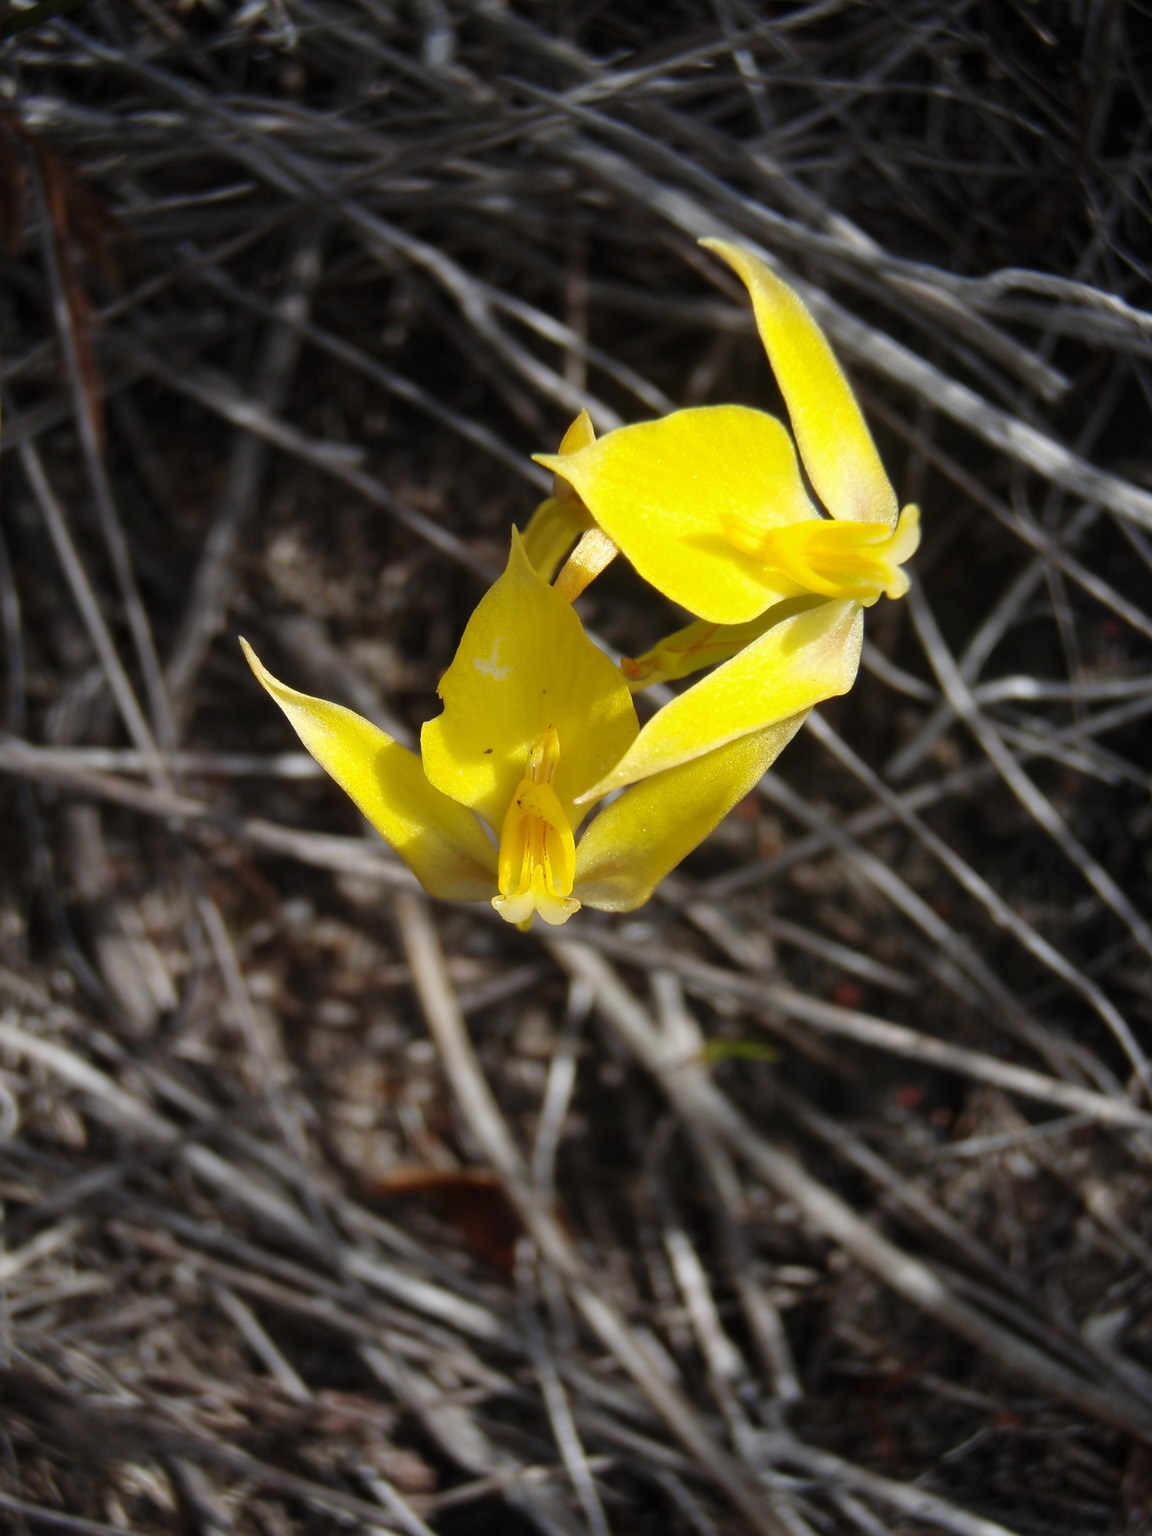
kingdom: Plantae
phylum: Tracheophyta
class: Liliopsida
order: Asparagales
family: Orchidaceae
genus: Disa
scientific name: Disa tenuifolia
